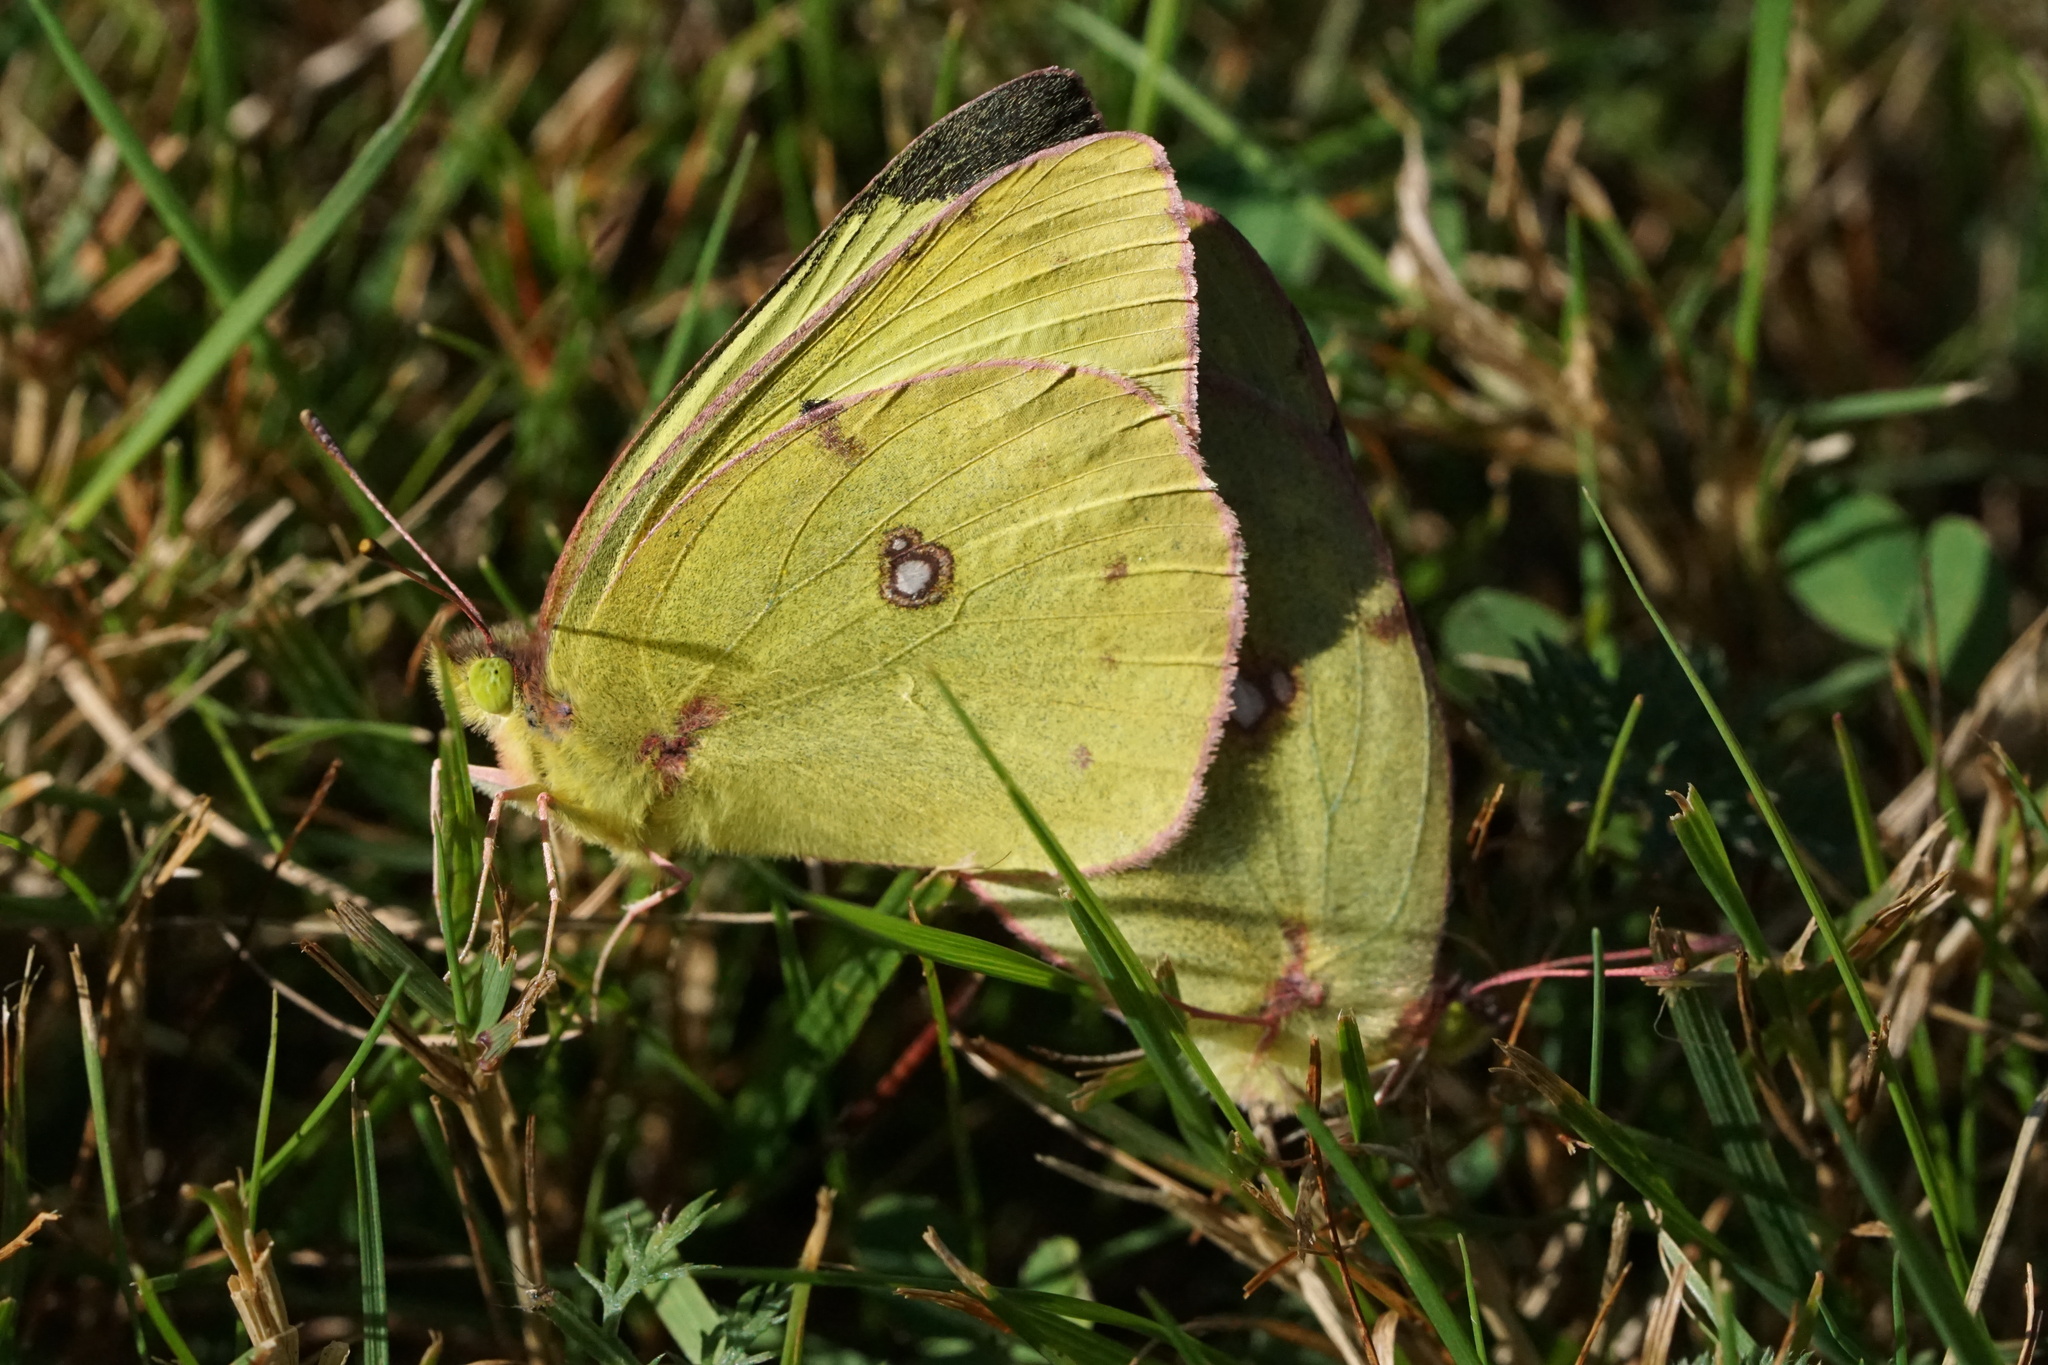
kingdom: Animalia
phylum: Arthropoda
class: Insecta
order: Lepidoptera
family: Pieridae
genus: Colias
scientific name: Colias philodice
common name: Clouded sulphur
